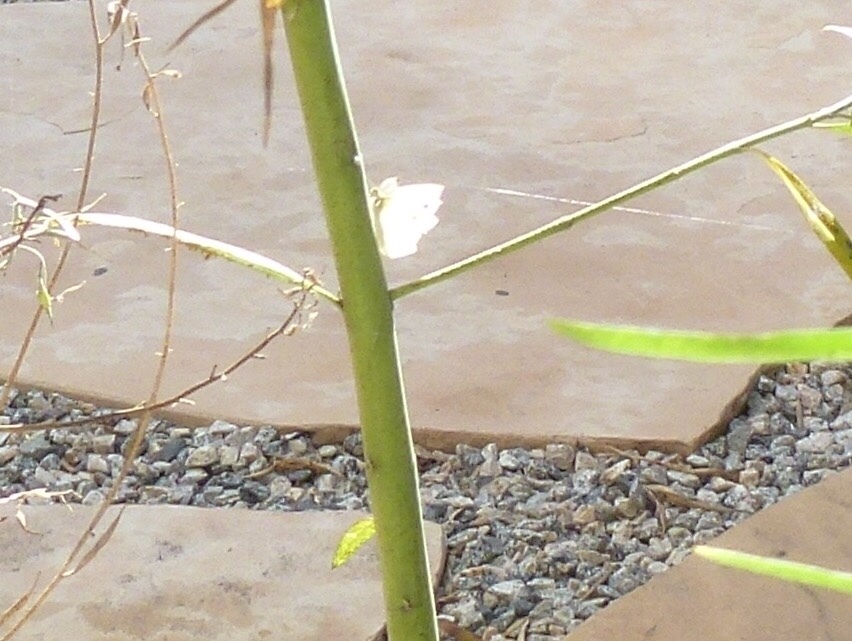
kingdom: Animalia
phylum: Arthropoda
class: Insecta
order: Lepidoptera
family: Pieridae
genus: Pieris
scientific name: Pieris rapae
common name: Small white
